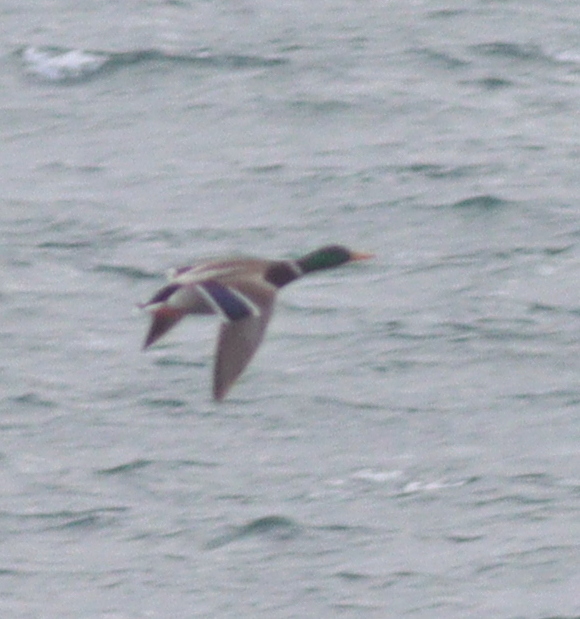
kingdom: Animalia
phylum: Chordata
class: Aves
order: Anseriformes
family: Anatidae
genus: Anas
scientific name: Anas platyrhynchos
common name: Mallard
